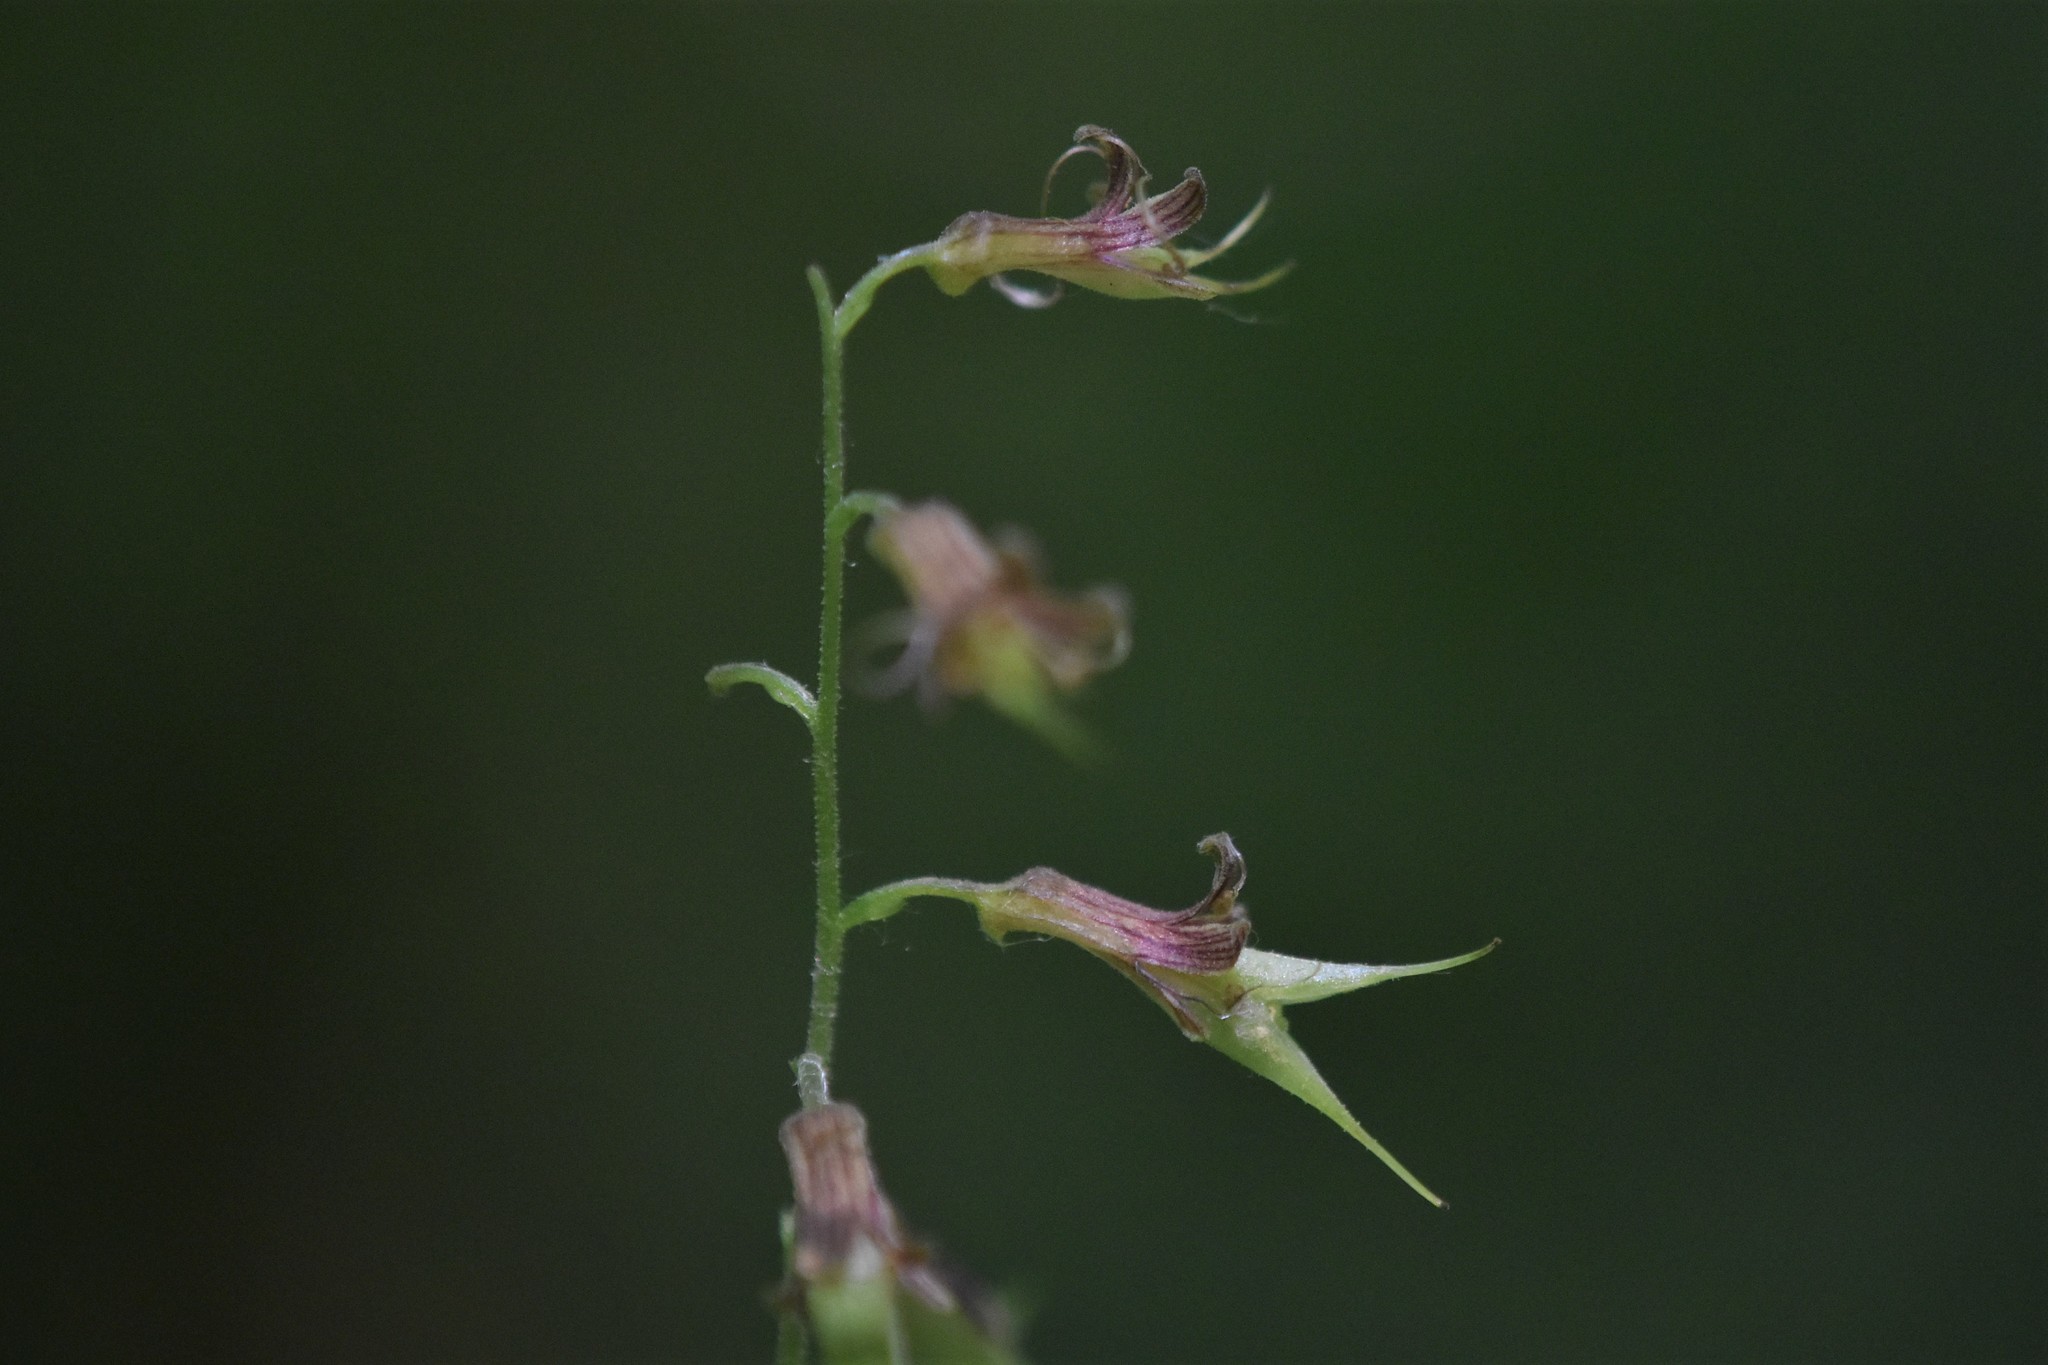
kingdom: Plantae
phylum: Tracheophyta
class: Magnoliopsida
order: Saxifragales
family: Saxifragaceae
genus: Tolmiea
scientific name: Tolmiea menziesii
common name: Pick-a-back-plant
